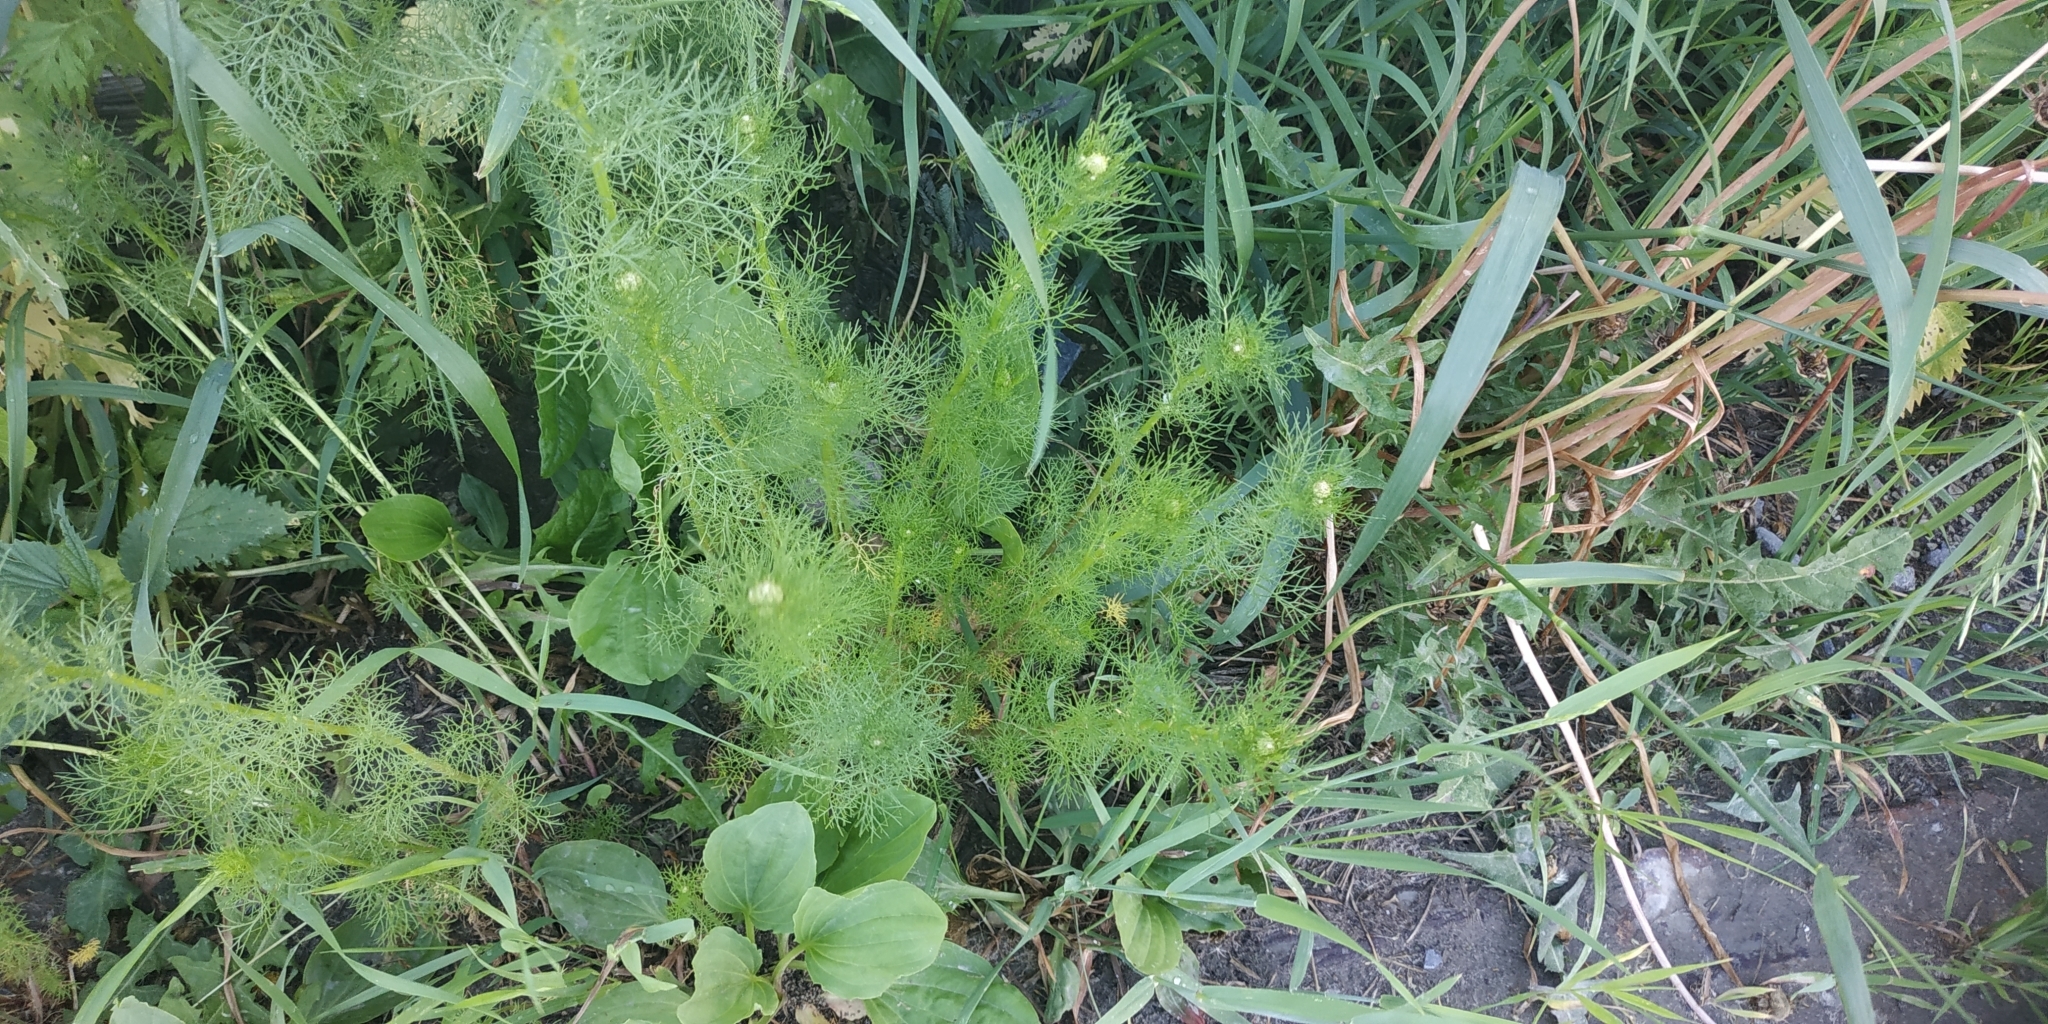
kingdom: Plantae
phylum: Tracheophyta
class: Magnoliopsida
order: Asterales
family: Asteraceae
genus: Tripleurospermum
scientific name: Tripleurospermum inodorum
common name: Scentless mayweed
